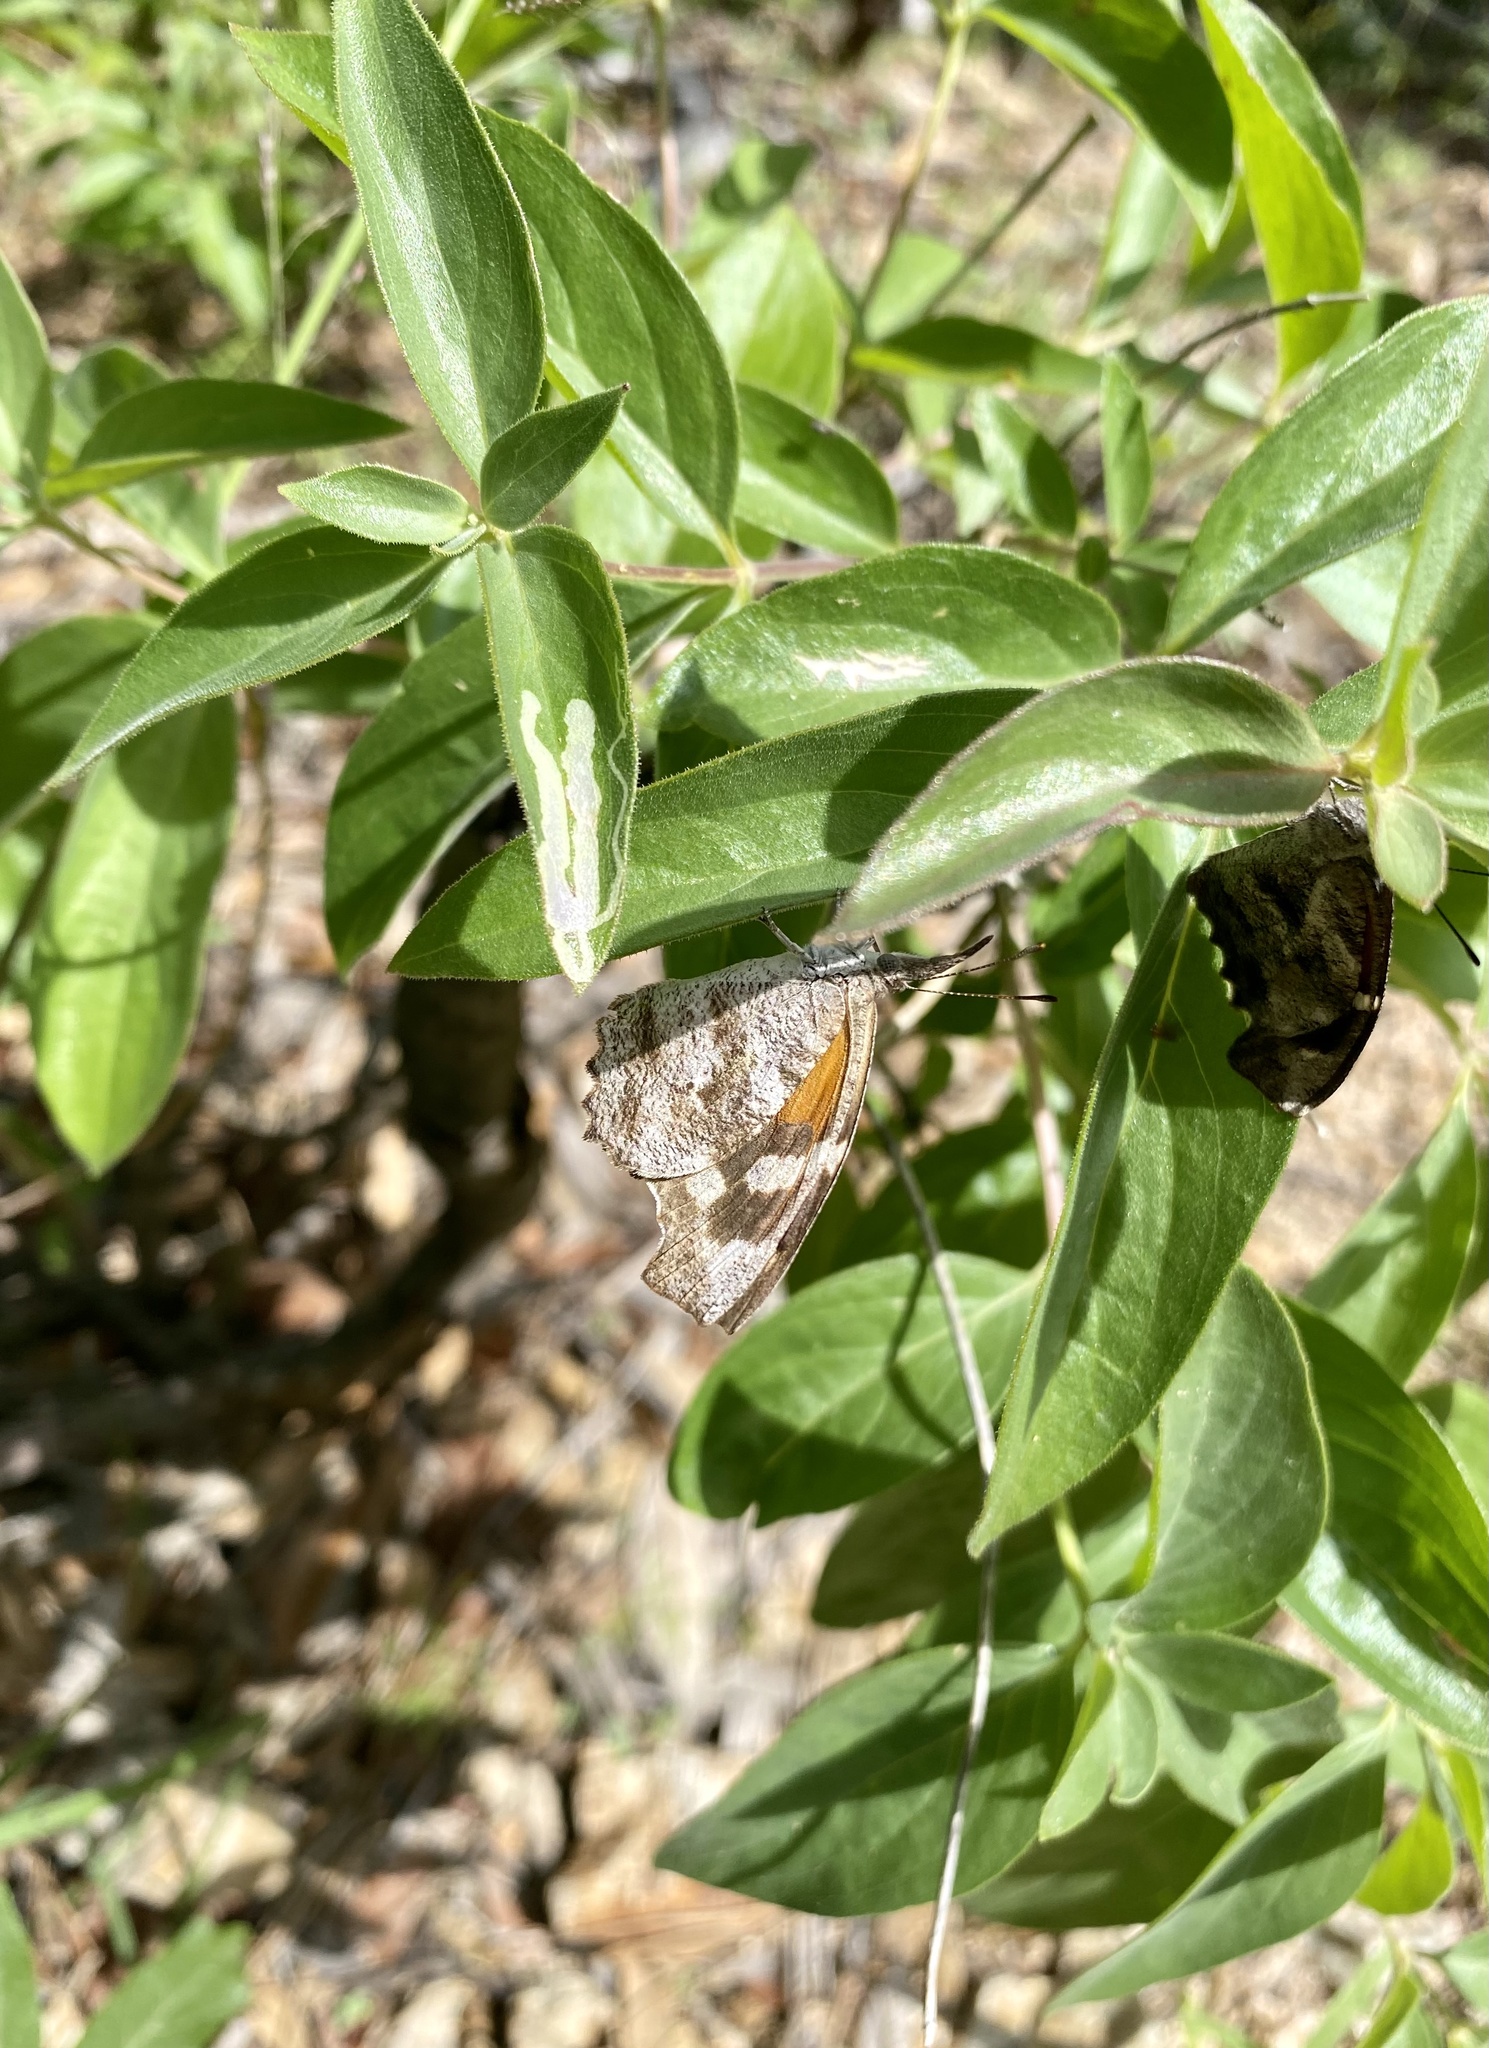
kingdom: Animalia
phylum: Arthropoda
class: Insecta
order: Lepidoptera
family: Nymphalidae
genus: Libytheana
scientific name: Libytheana carinenta
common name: American snout
